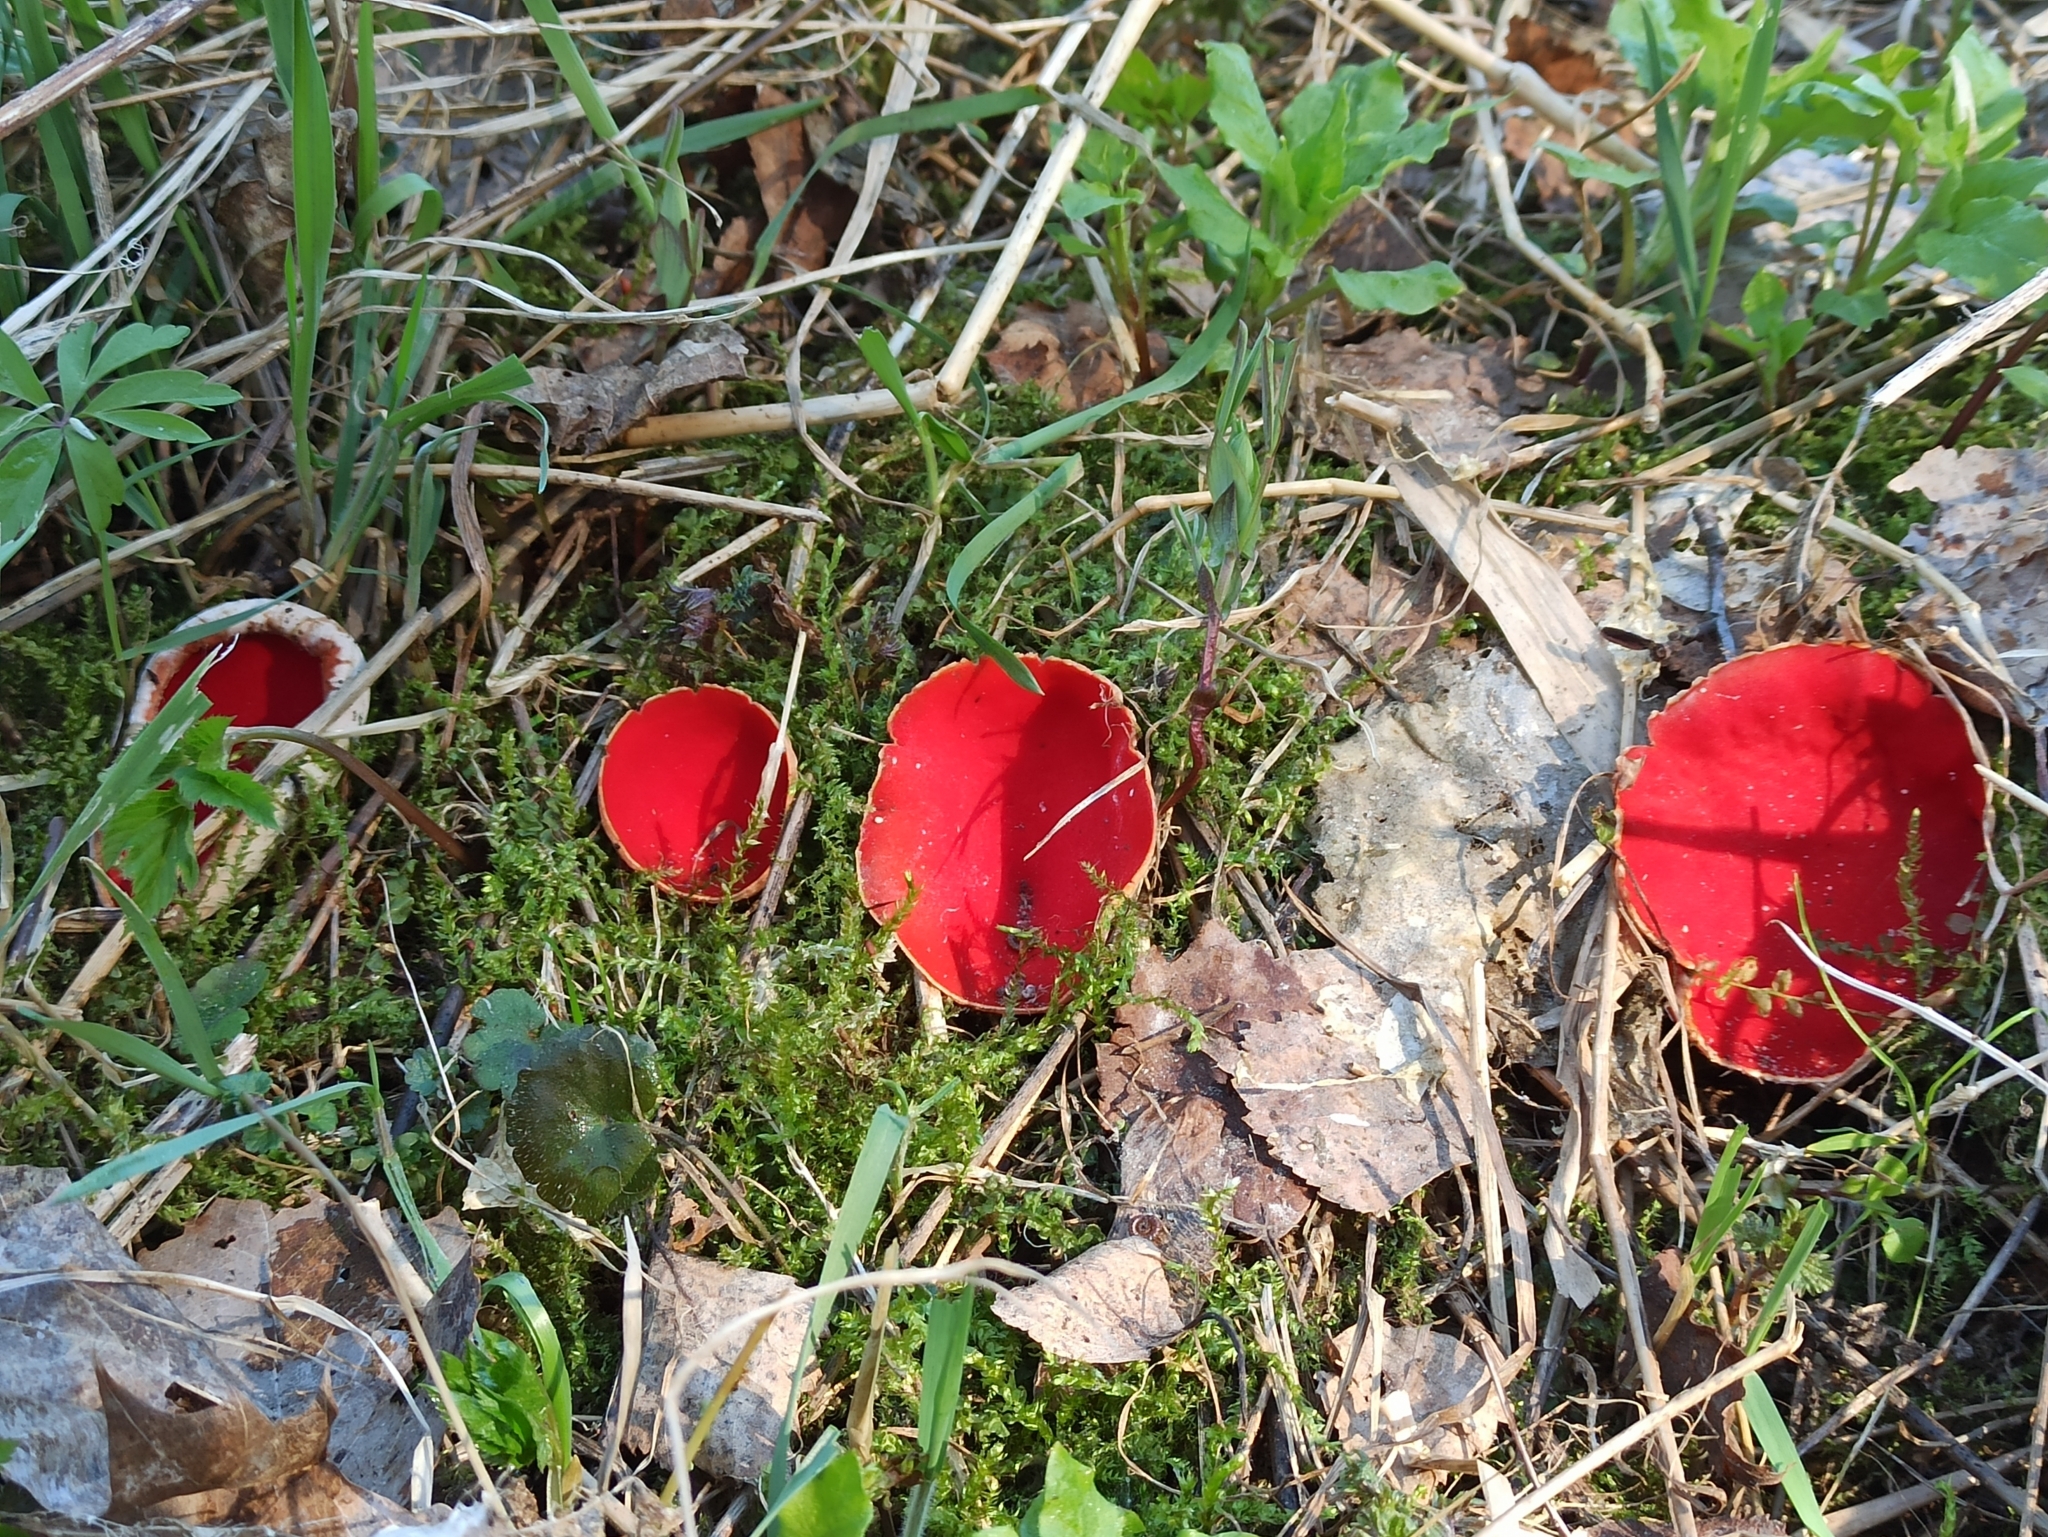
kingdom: Fungi
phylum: Ascomycota
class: Pezizomycetes
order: Pezizales
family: Sarcoscyphaceae
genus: Sarcoscypha
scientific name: Sarcoscypha austriaca
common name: Scarlet elfcup
